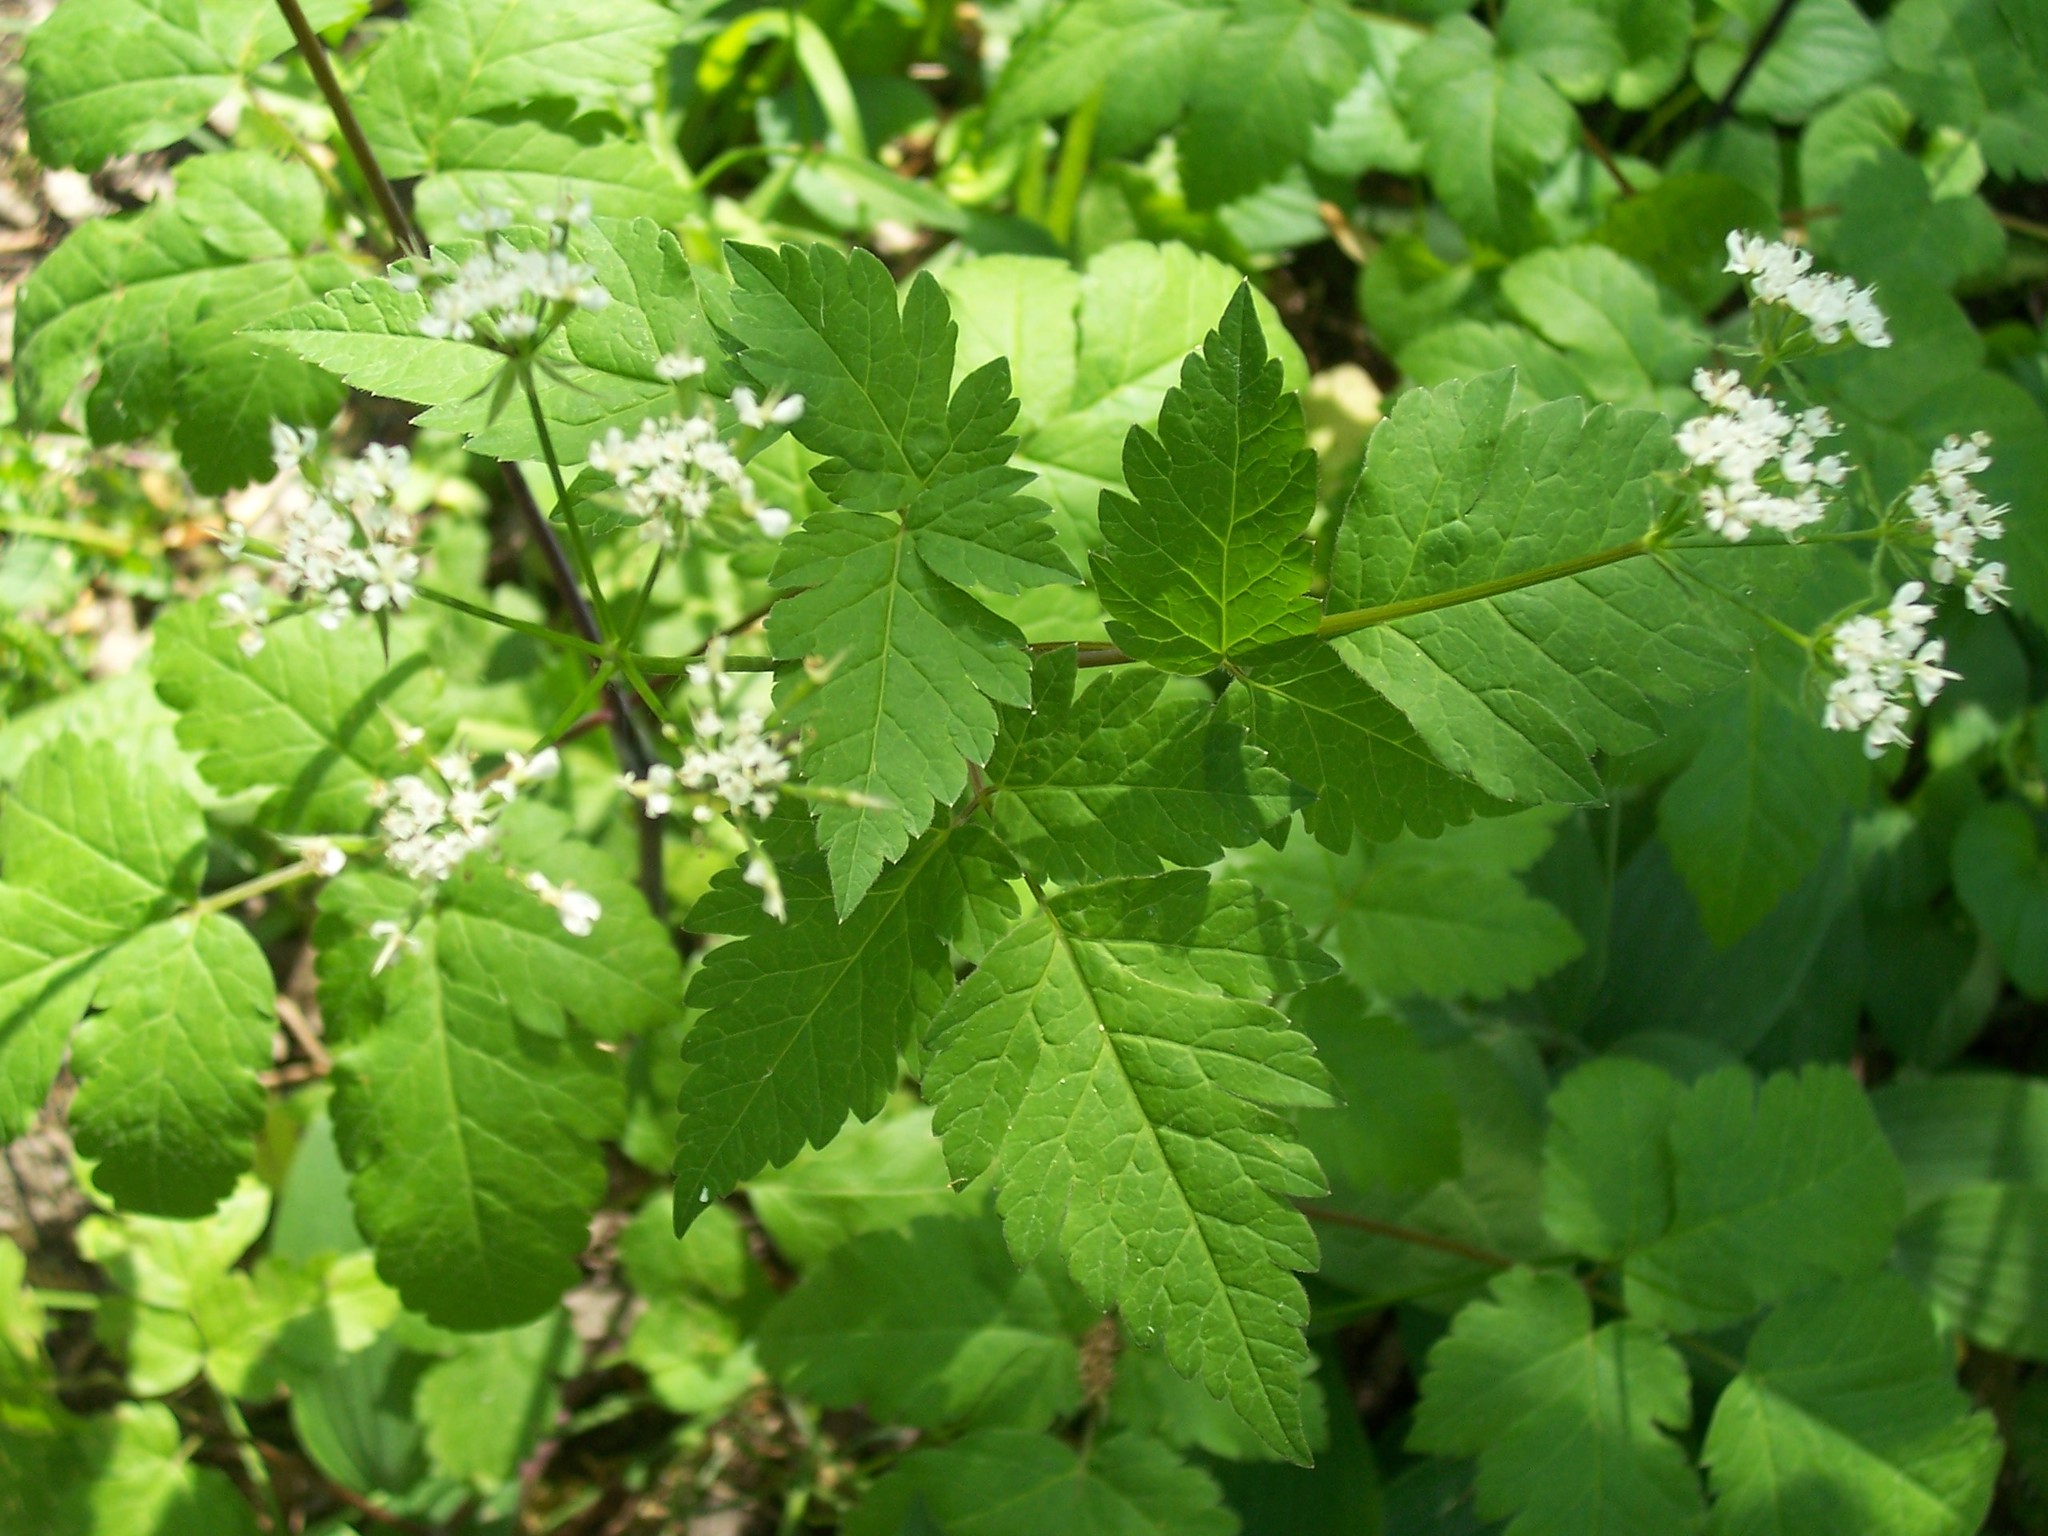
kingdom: Plantae
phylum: Tracheophyta
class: Magnoliopsida
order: Apiales
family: Apiaceae
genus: Osmorhiza
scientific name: Osmorhiza longistylis
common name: Smooth sweet cicely
